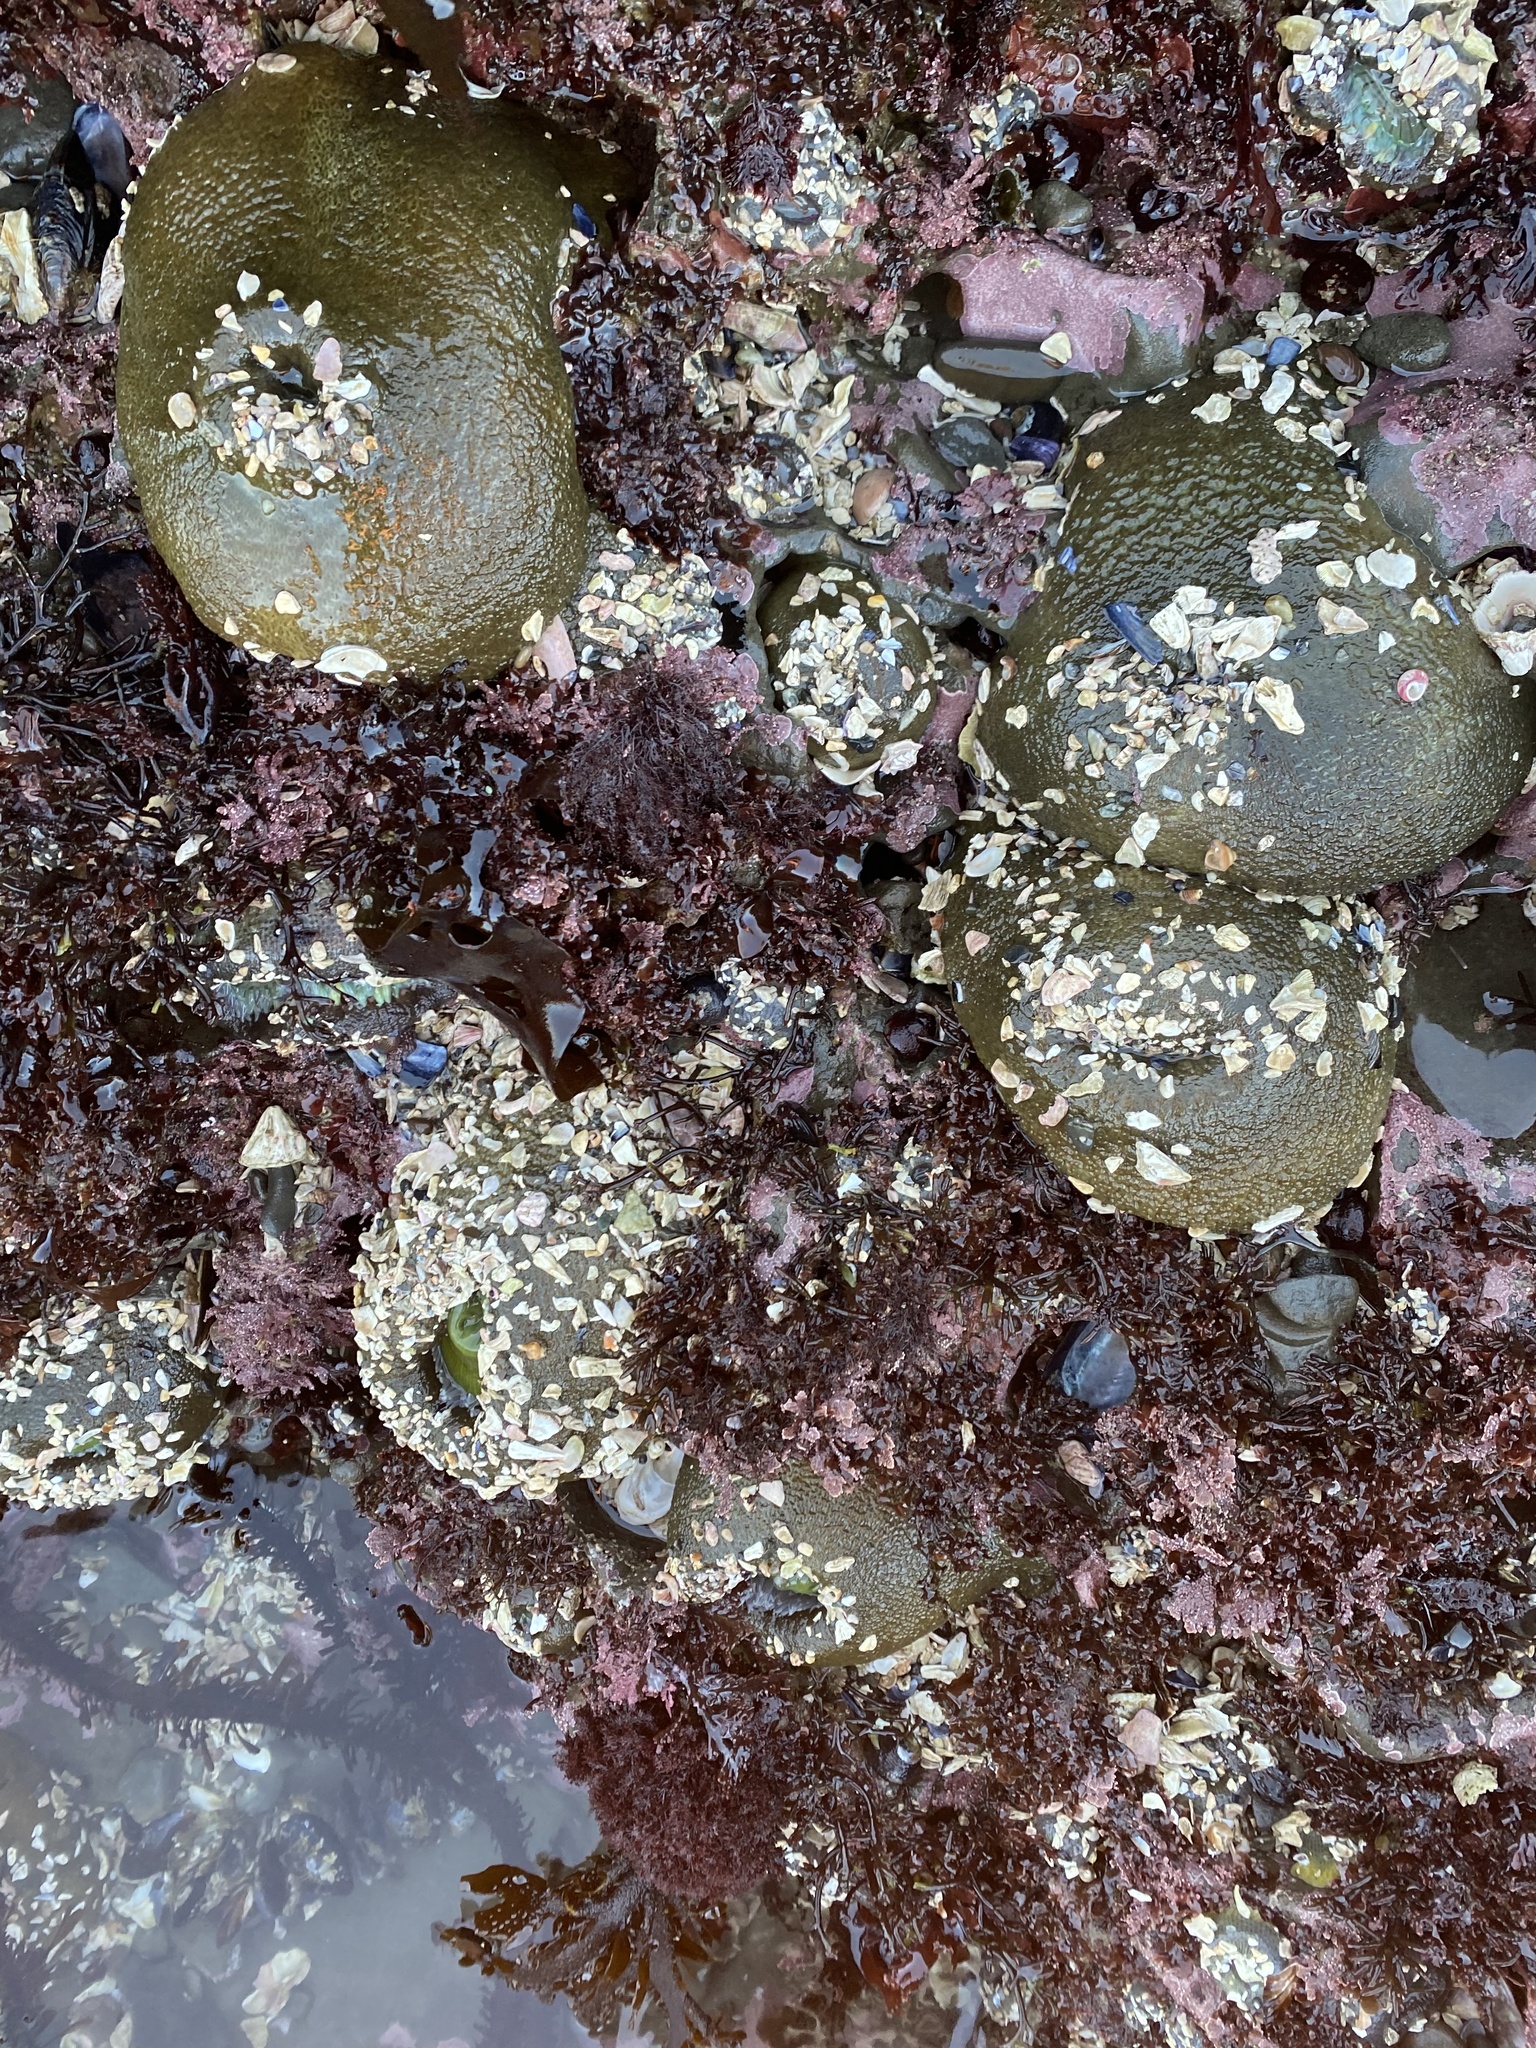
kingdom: Animalia
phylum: Cnidaria
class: Anthozoa
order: Actiniaria
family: Actiniidae
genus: Anthopleura
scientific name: Anthopleura xanthogrammica
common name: Giant green anemone
